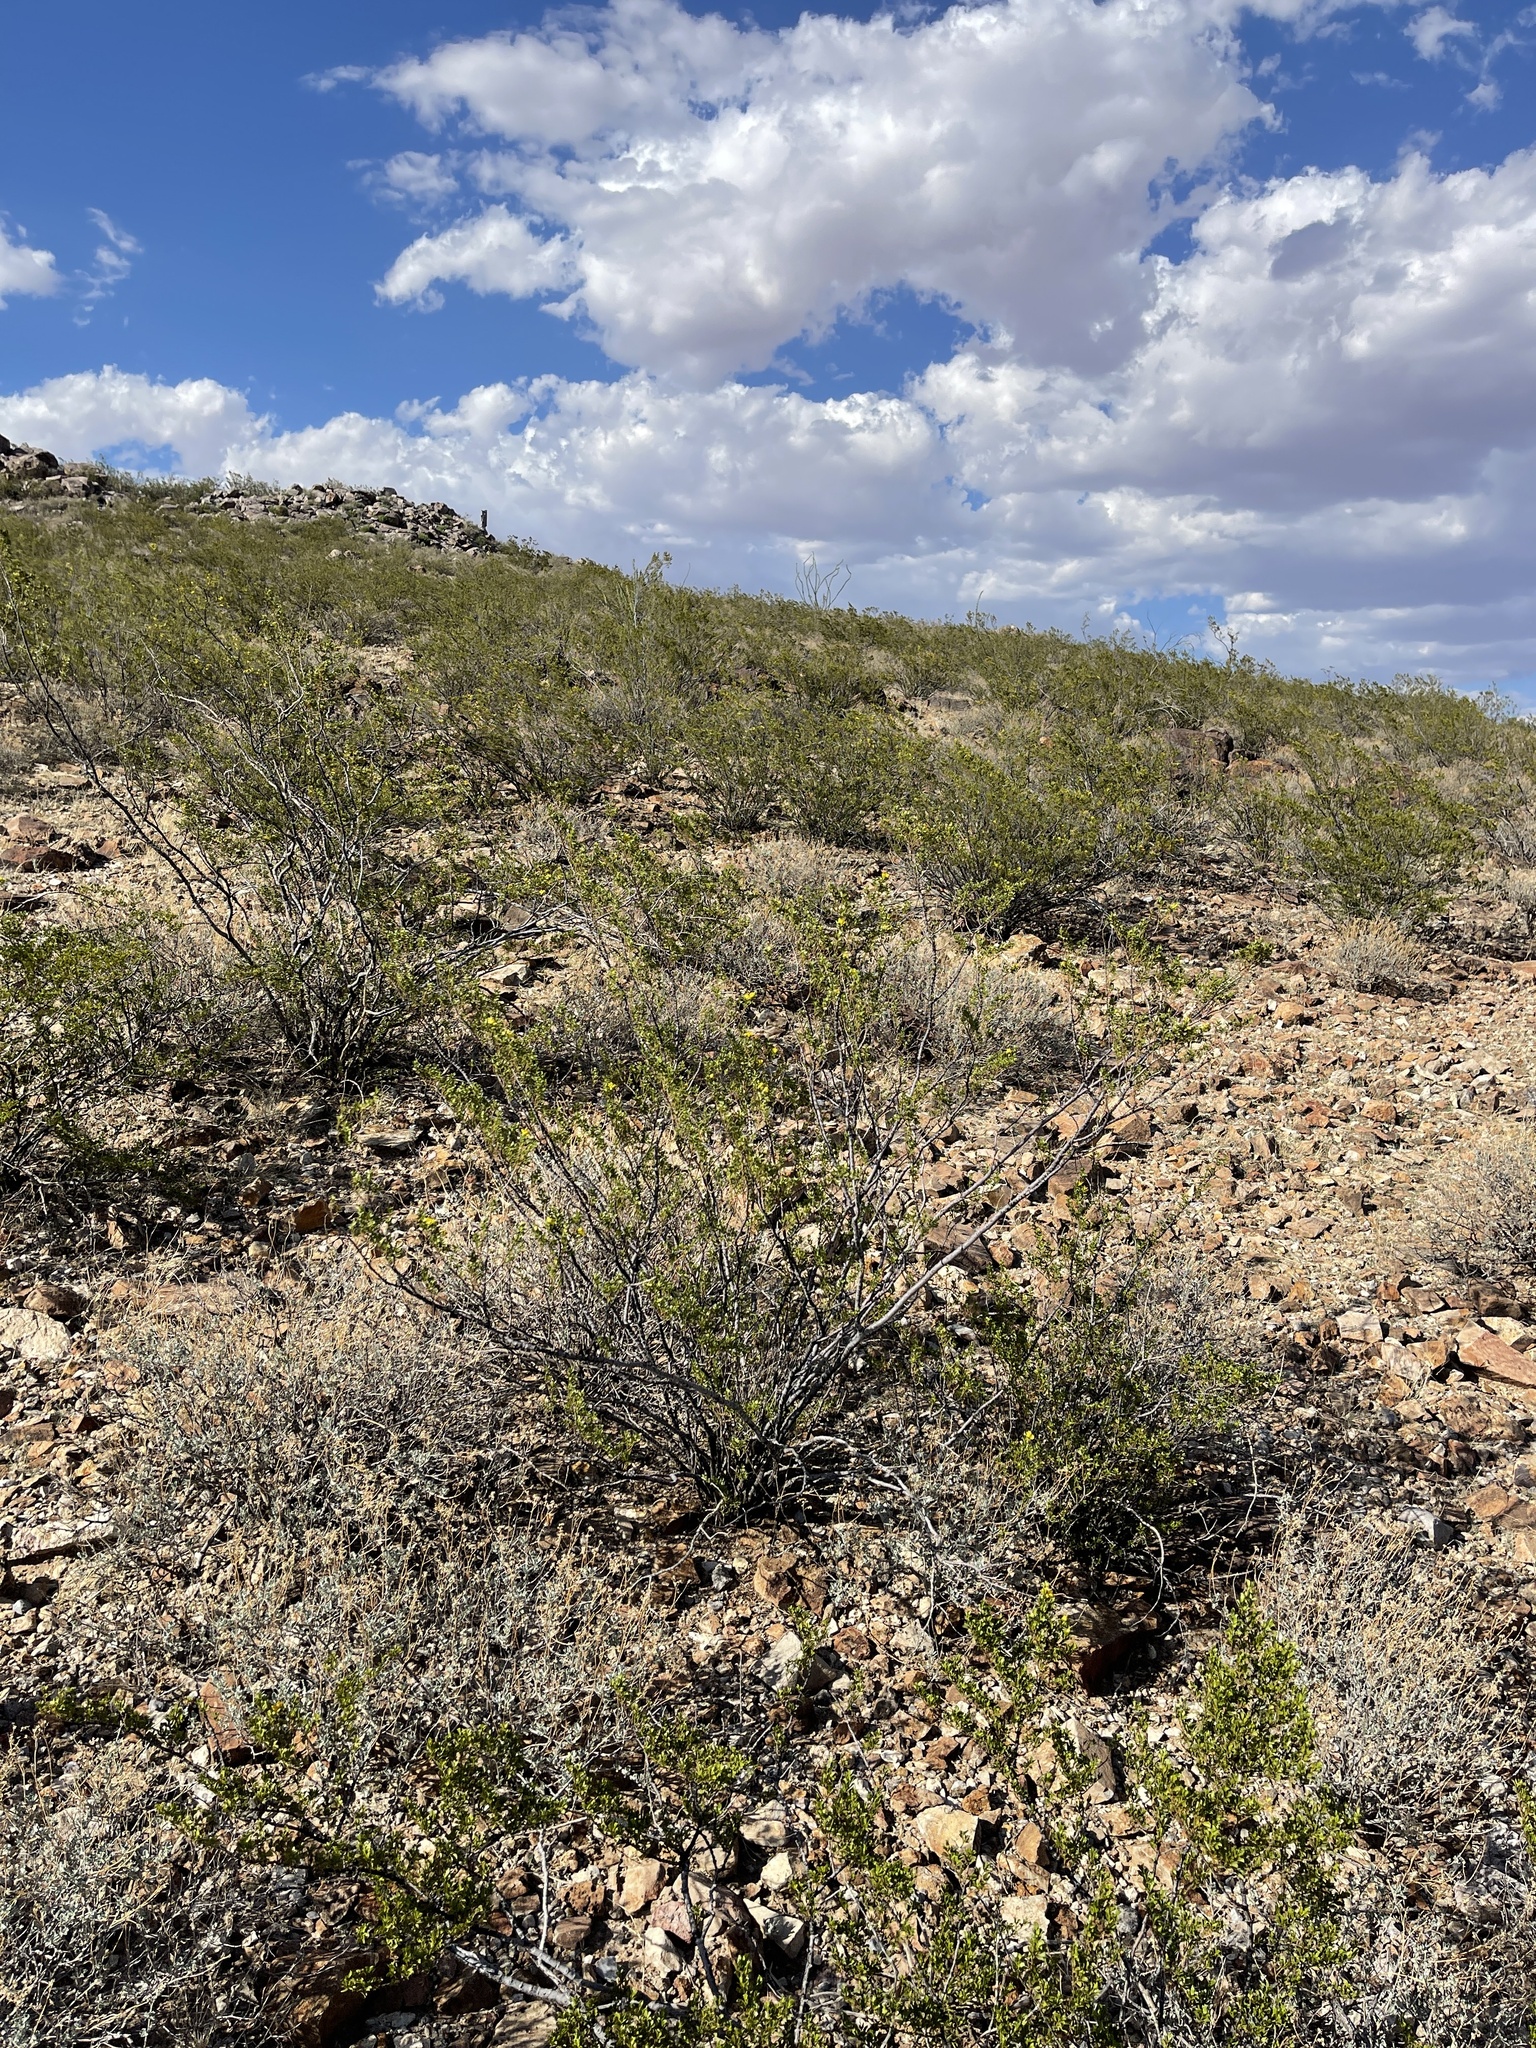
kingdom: Plantae
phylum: Tracheophyta
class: Magnoliopsida
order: Zygophyllales
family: Zygophyllaceae
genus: Larrea
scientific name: Larrea tridentata
